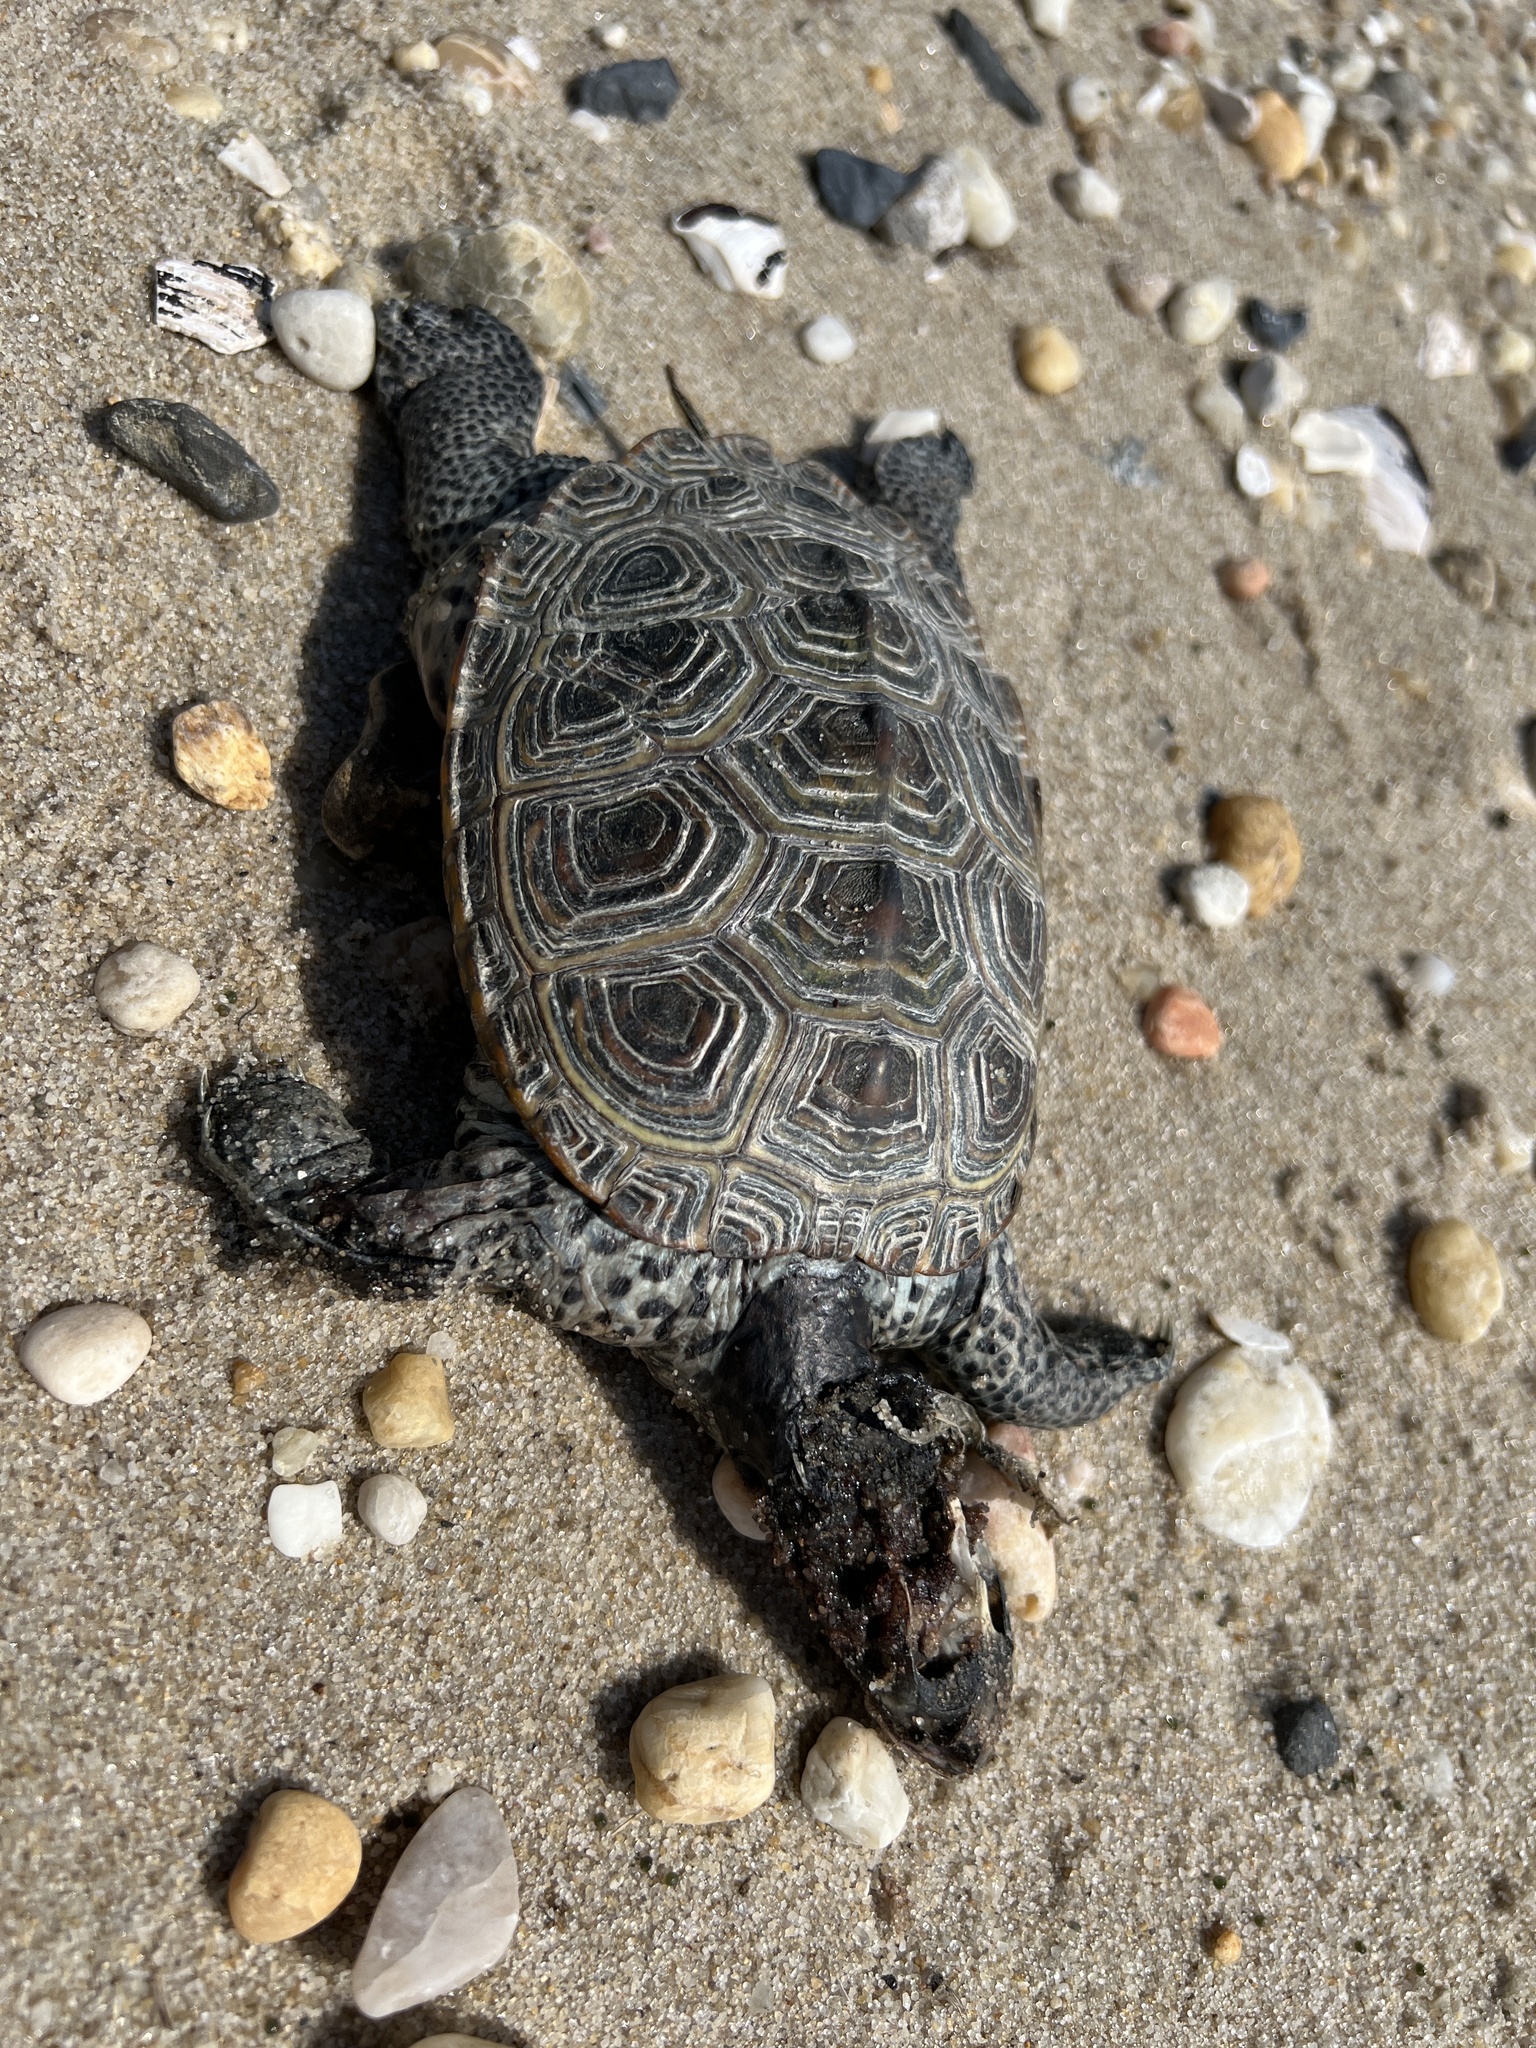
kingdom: Animalia
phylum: Chordata
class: Testudines
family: Emydidae
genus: Malaclemys
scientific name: Malaclemys terrapin
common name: Diamondback terrapin
